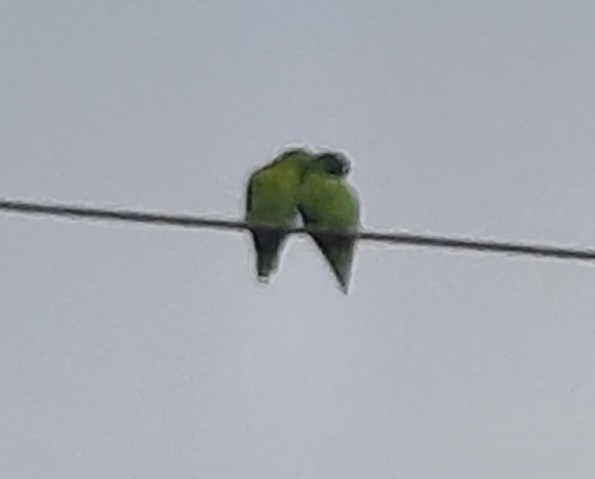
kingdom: Animalia
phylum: Chordata
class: Aves
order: Psittaciformes
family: Psittacidae
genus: Brotogeris
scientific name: Brotogeris jugularis
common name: Orange-chinned parakeet
